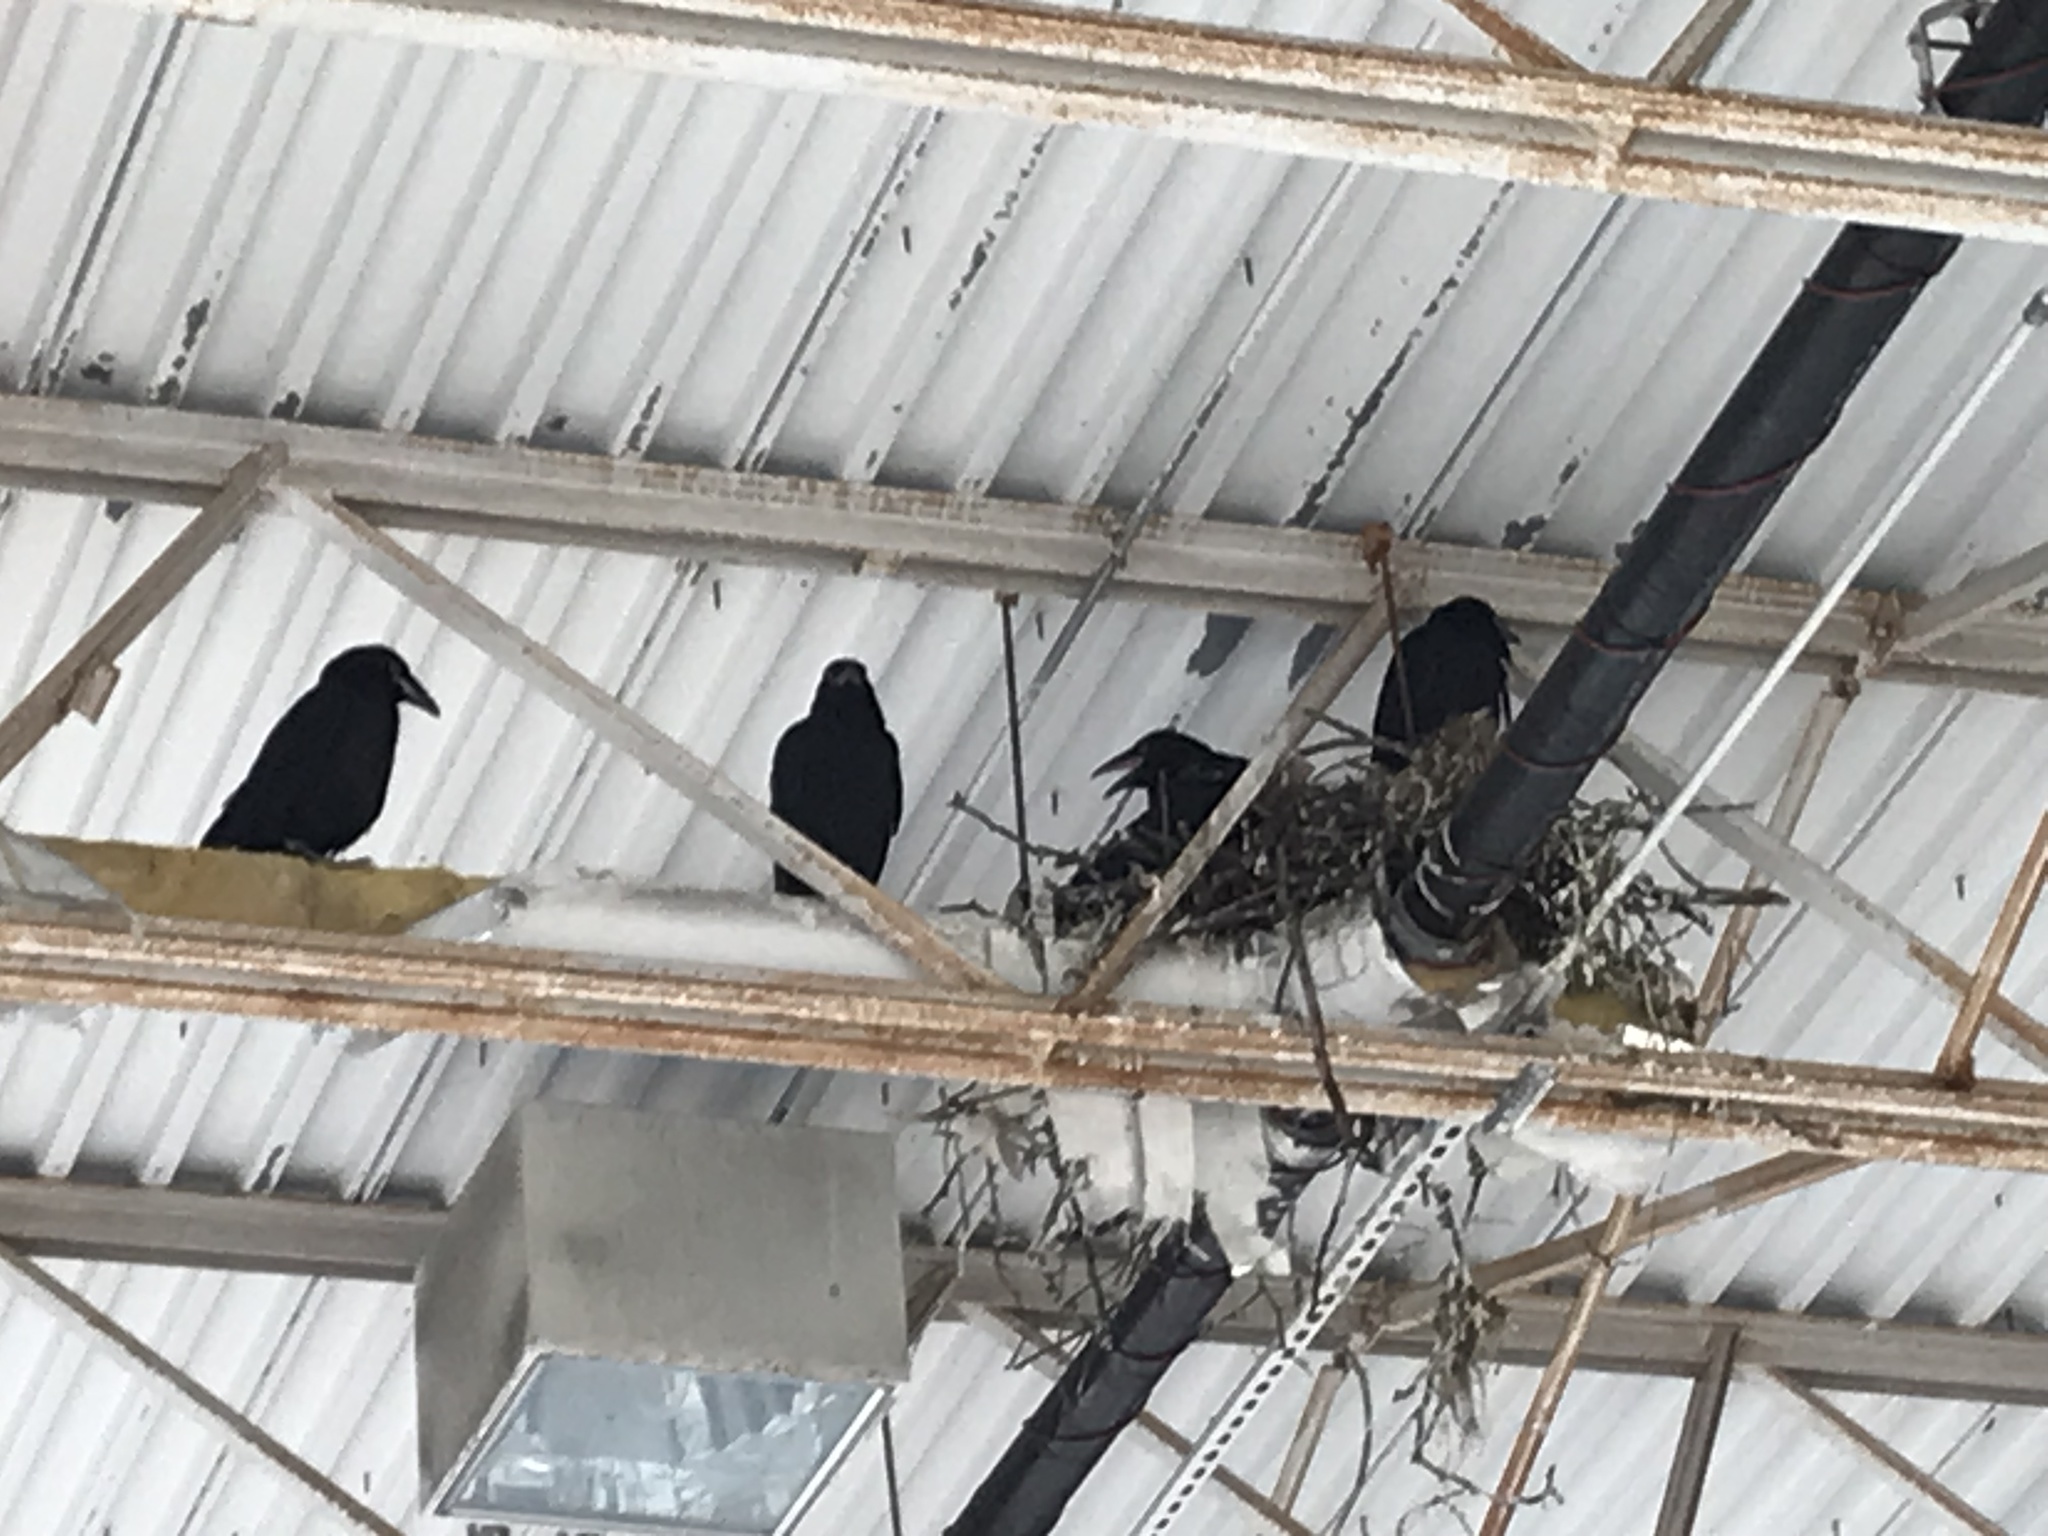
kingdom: Animalia
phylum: Chordata
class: Aves
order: Passeriformes
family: Corvidae
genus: Corvus
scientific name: Corvus brachyrhynchos
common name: American crow
